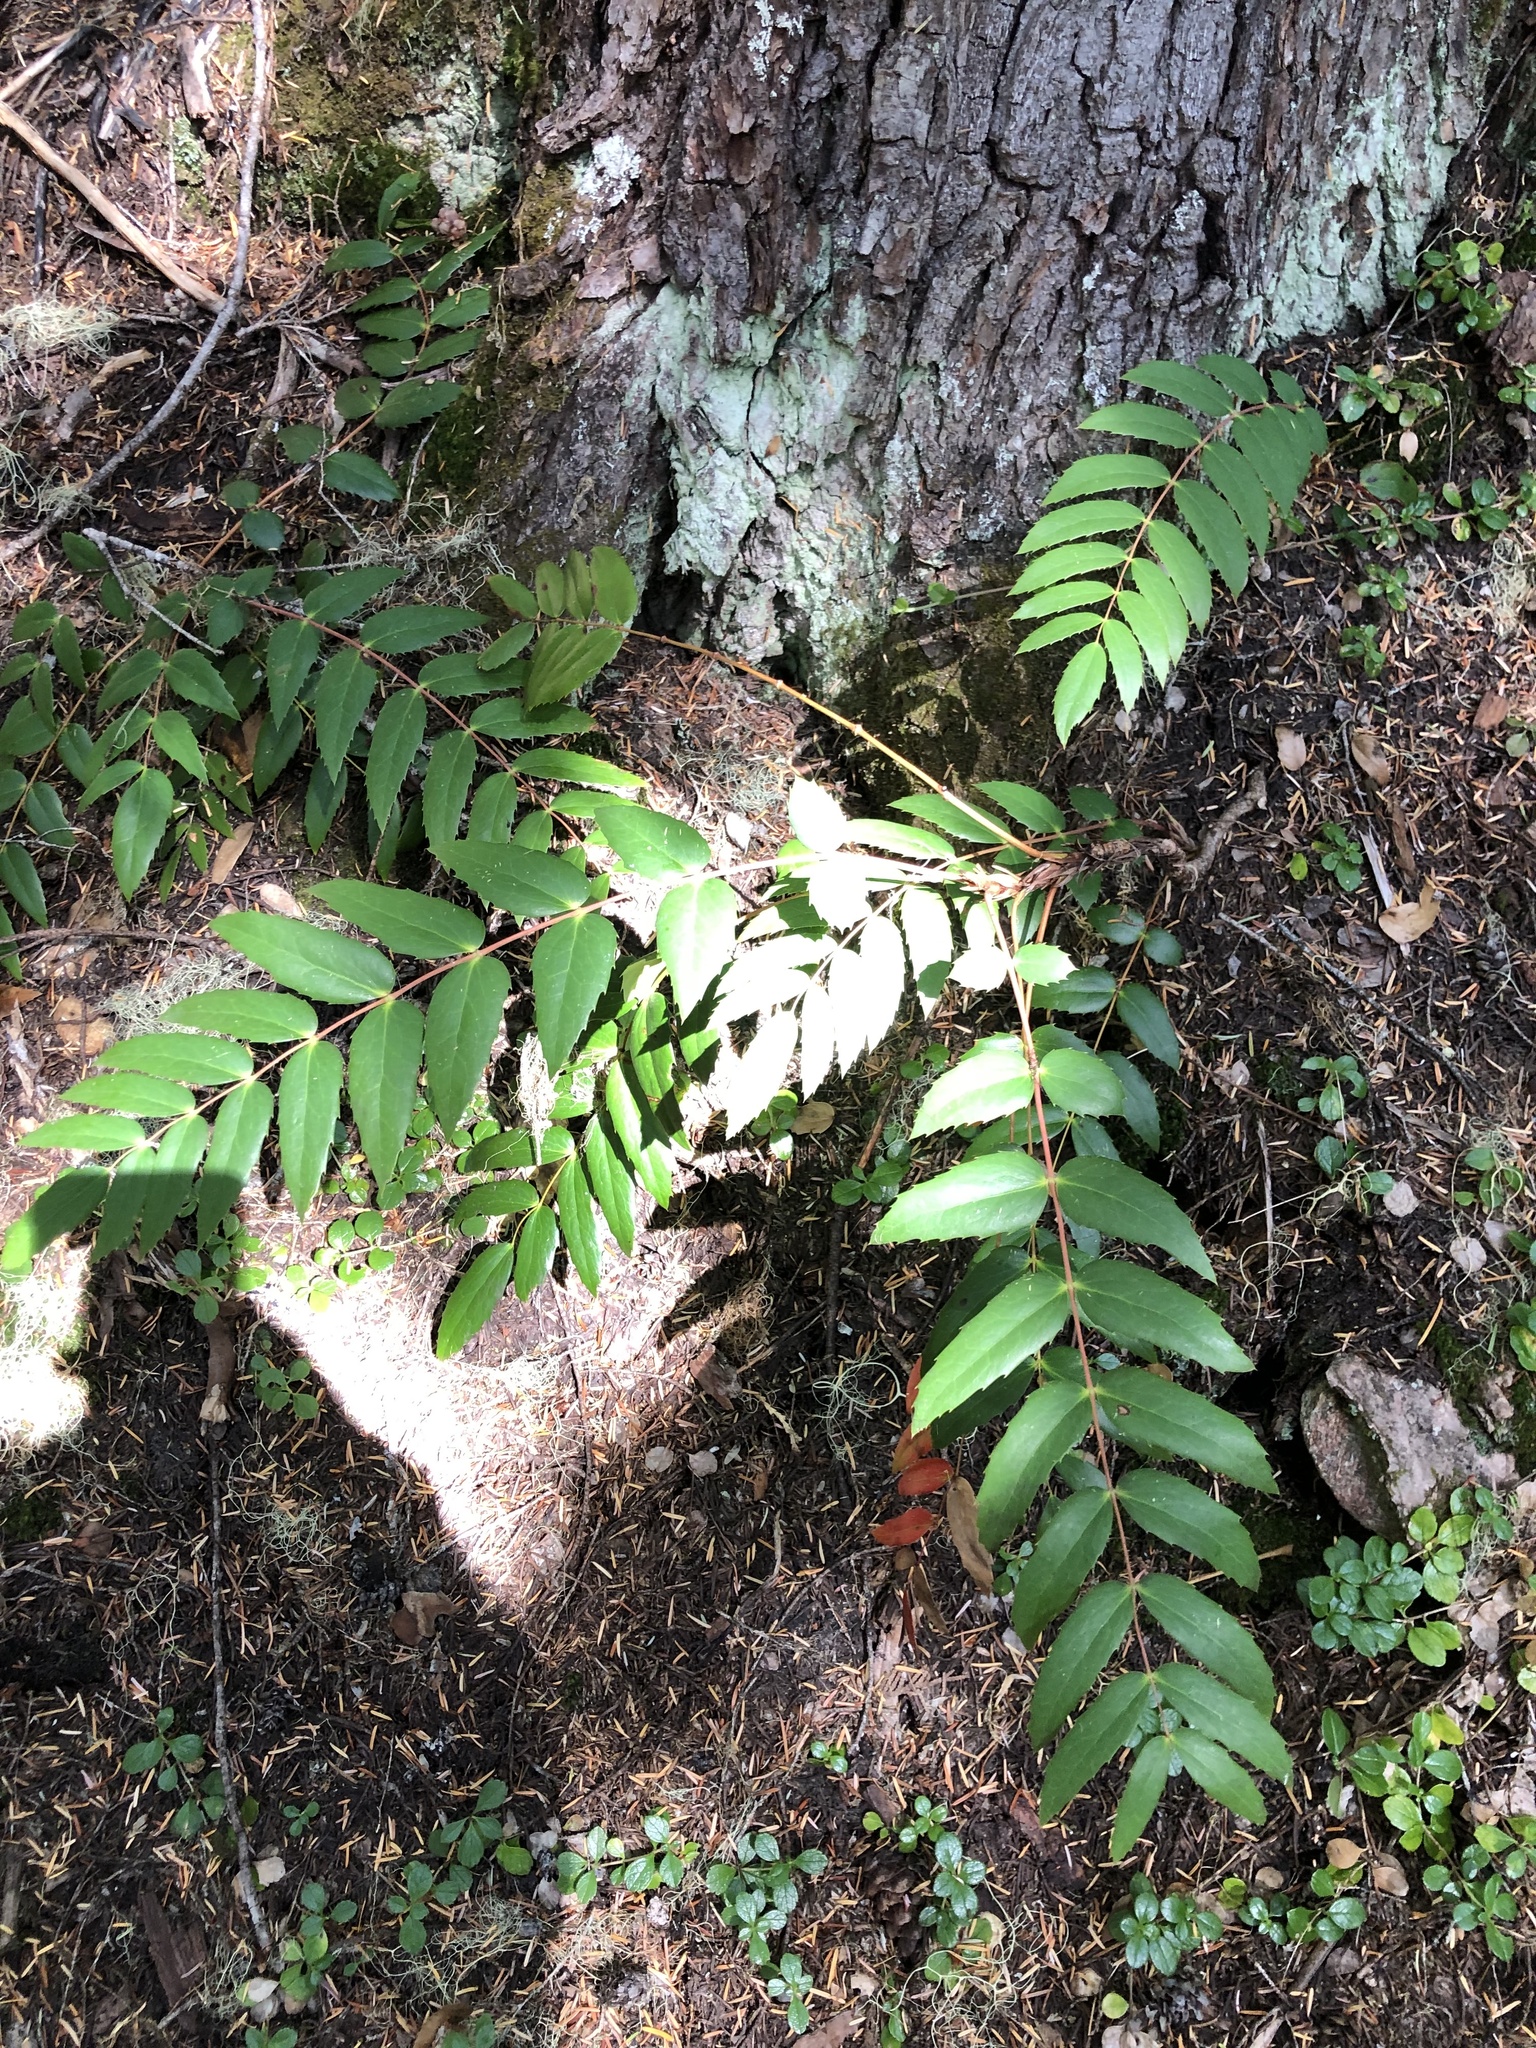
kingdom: Plantae
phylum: Tracheophyta
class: Magnoliopsida
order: Ranunculales
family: Berberidaceae
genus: Mahonia
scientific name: Mahonia nervosa
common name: Cascade oregon-grape
